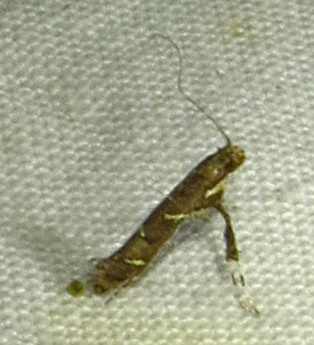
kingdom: Animalia
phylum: Arthropoda
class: Insecta
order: Lepidoptera
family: Gracillariidae
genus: Caloptilia
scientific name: Caloptilia triadicae
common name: Tallow leaf roller
